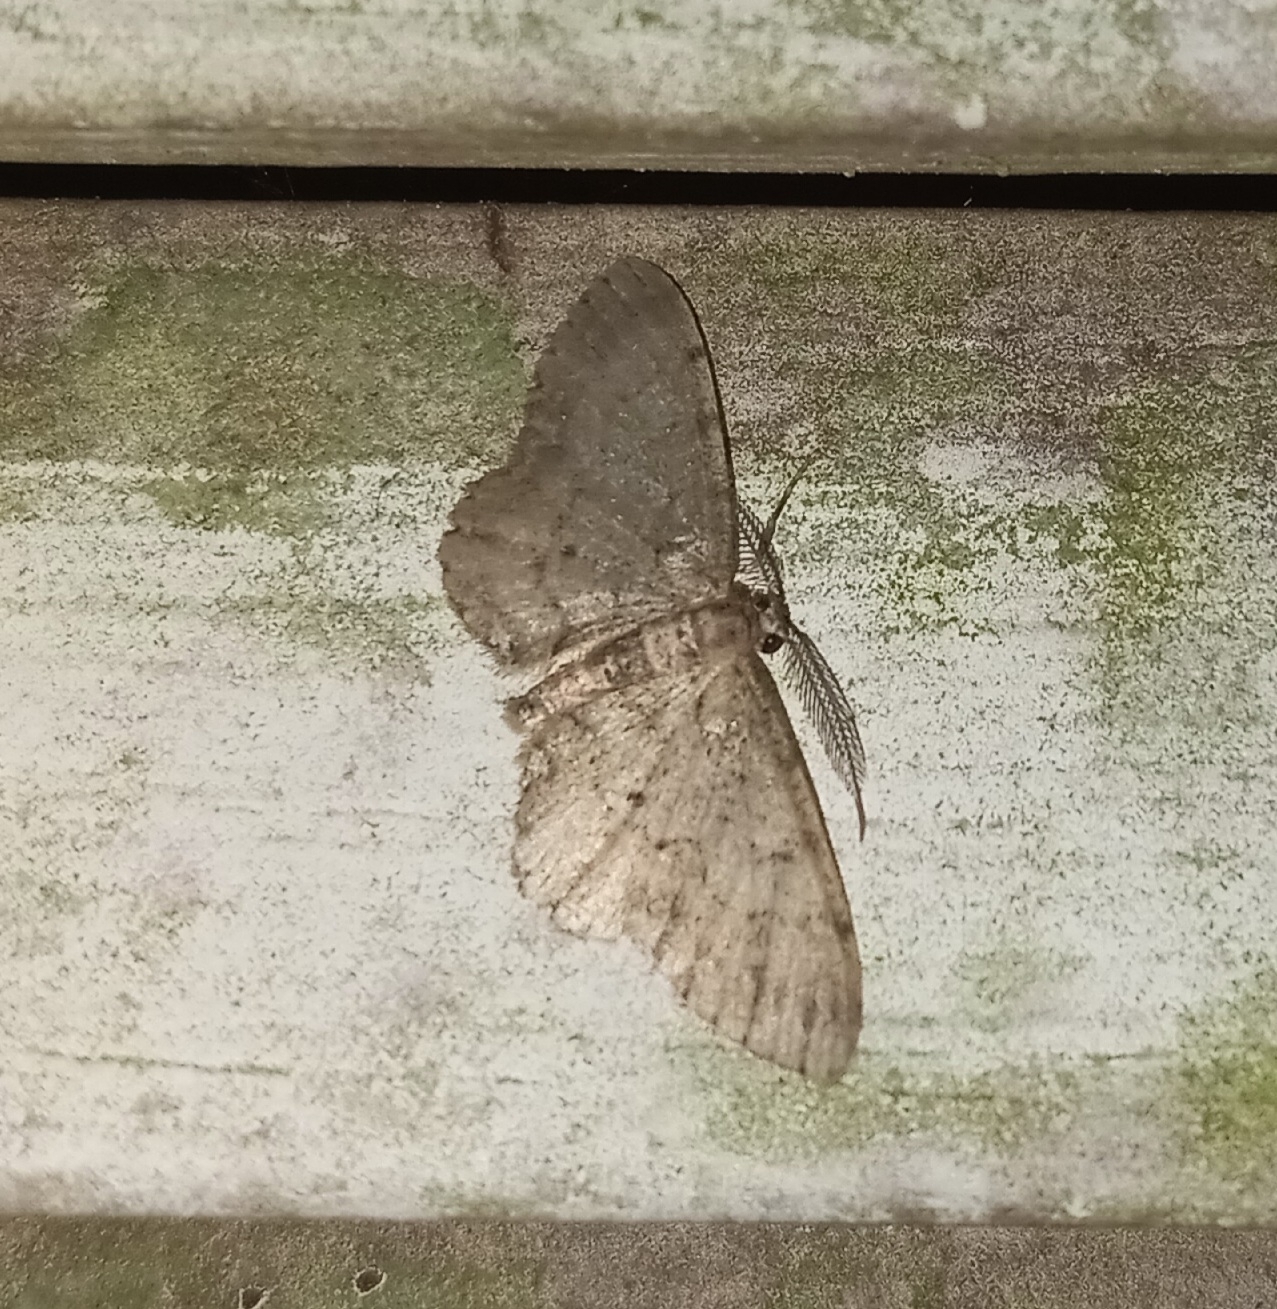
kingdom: Animalia
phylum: Arthropoda
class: Insecta
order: Lepidoptera
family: Geometridae
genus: Glenoides
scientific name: Glenoides texanaria
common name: Texas gray
